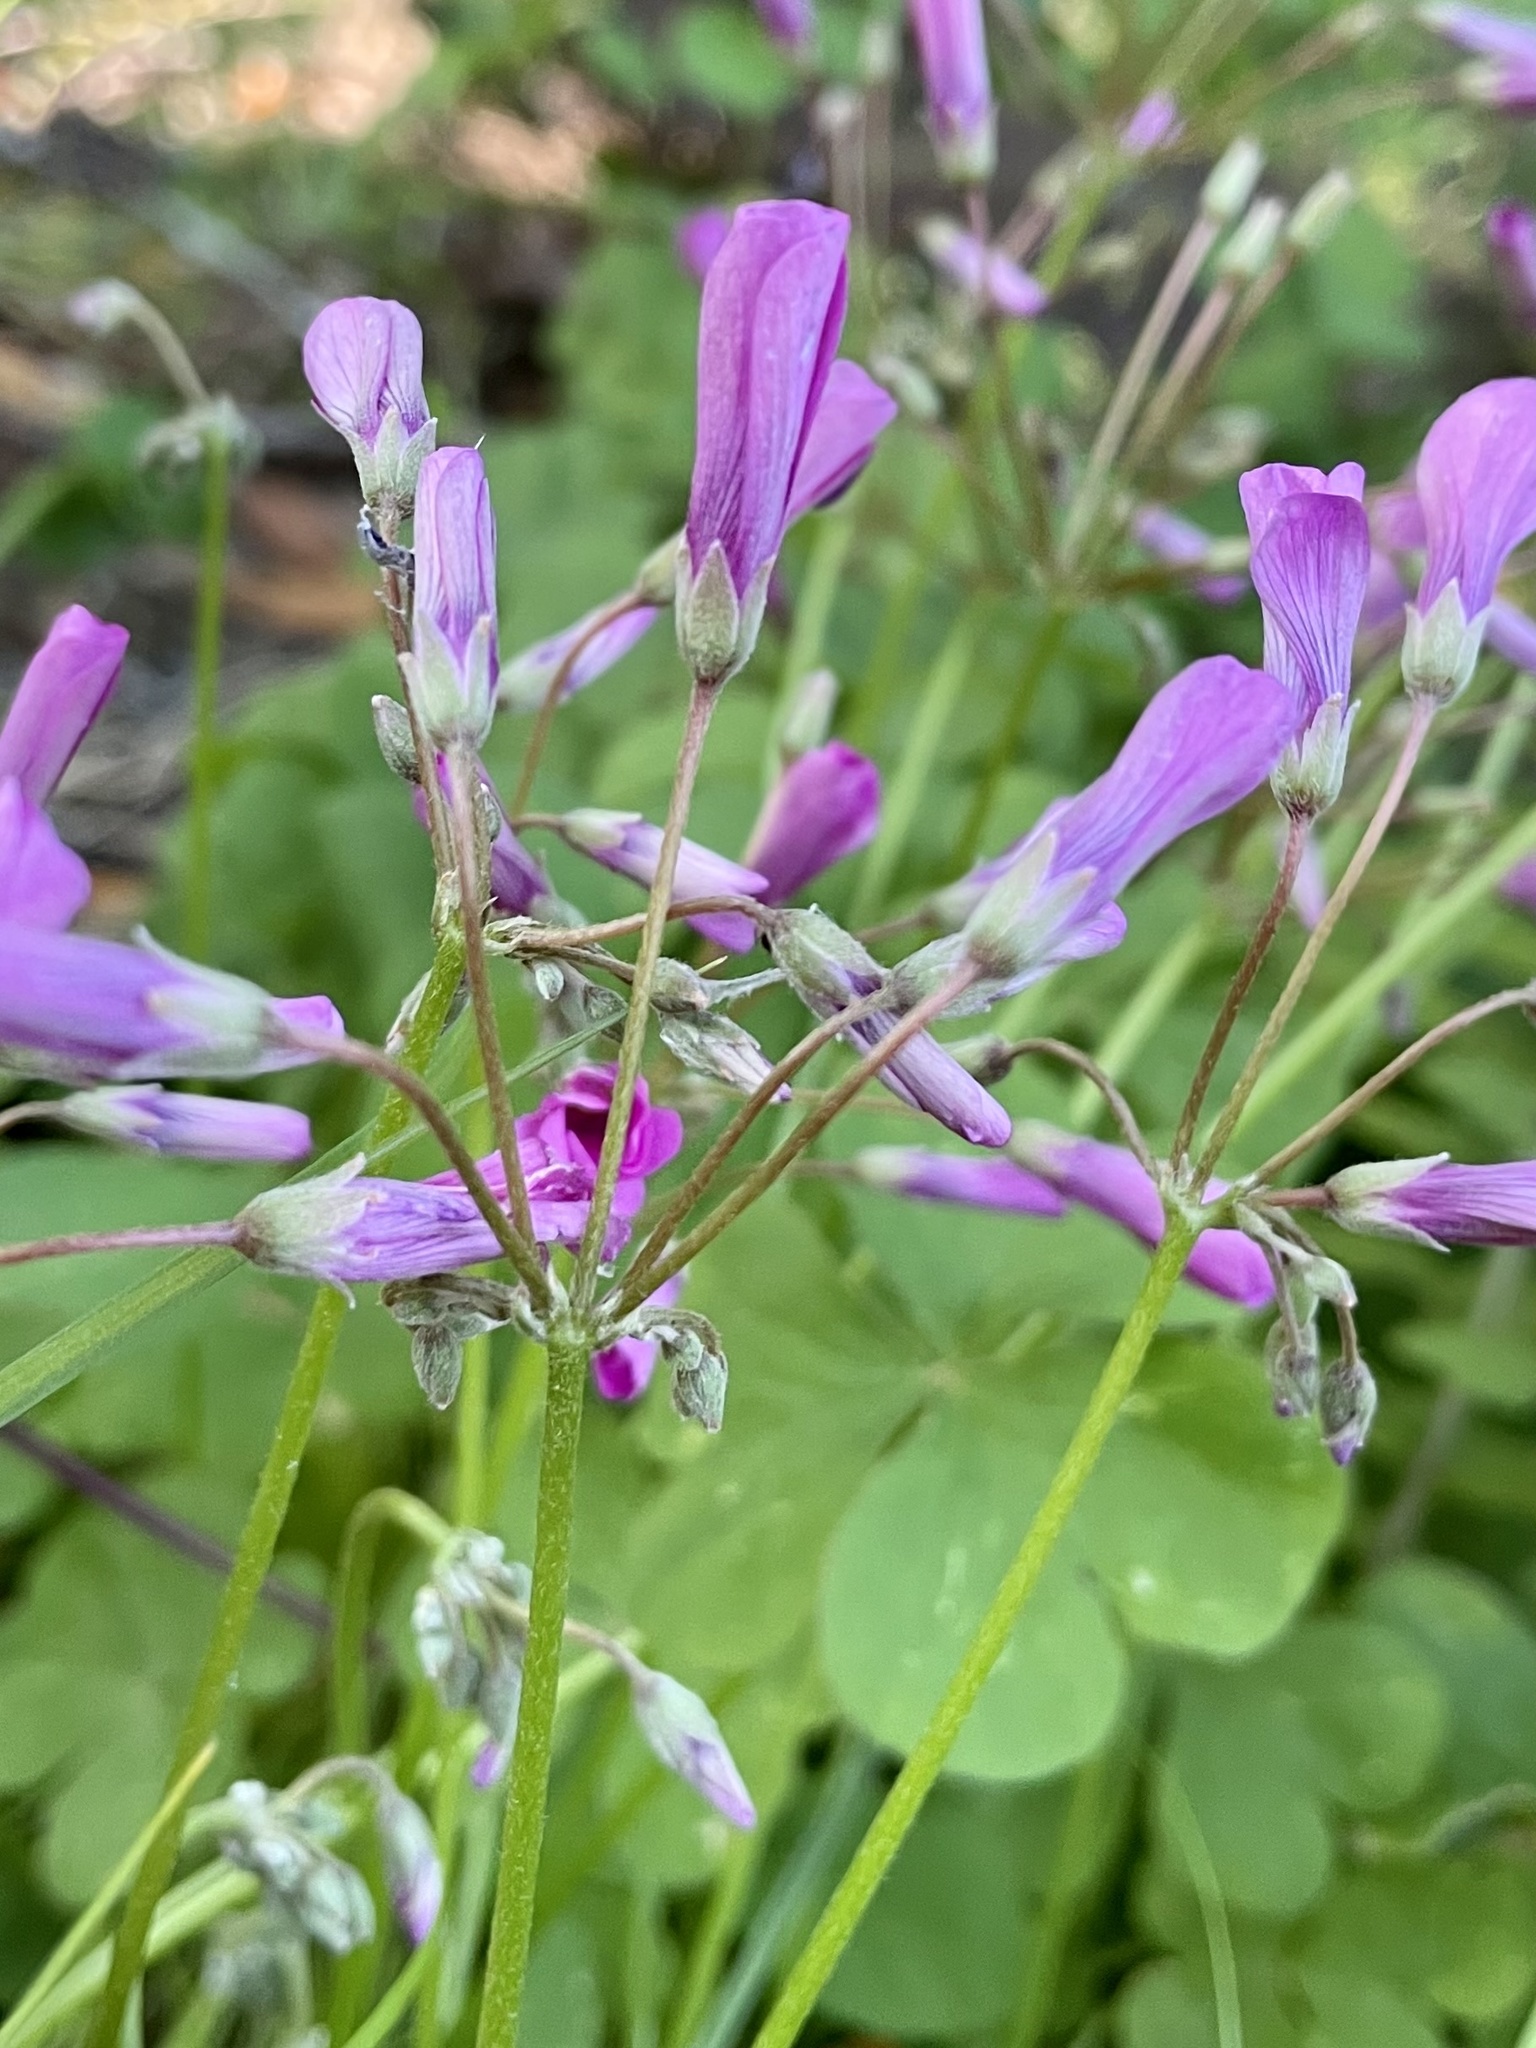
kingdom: Plantae
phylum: Tracheophyta
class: Magnoliopsida
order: Oxalidales
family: Oxalidaceae
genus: Oxalis
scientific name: Oxalis articulata
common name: Pink-sorrel
